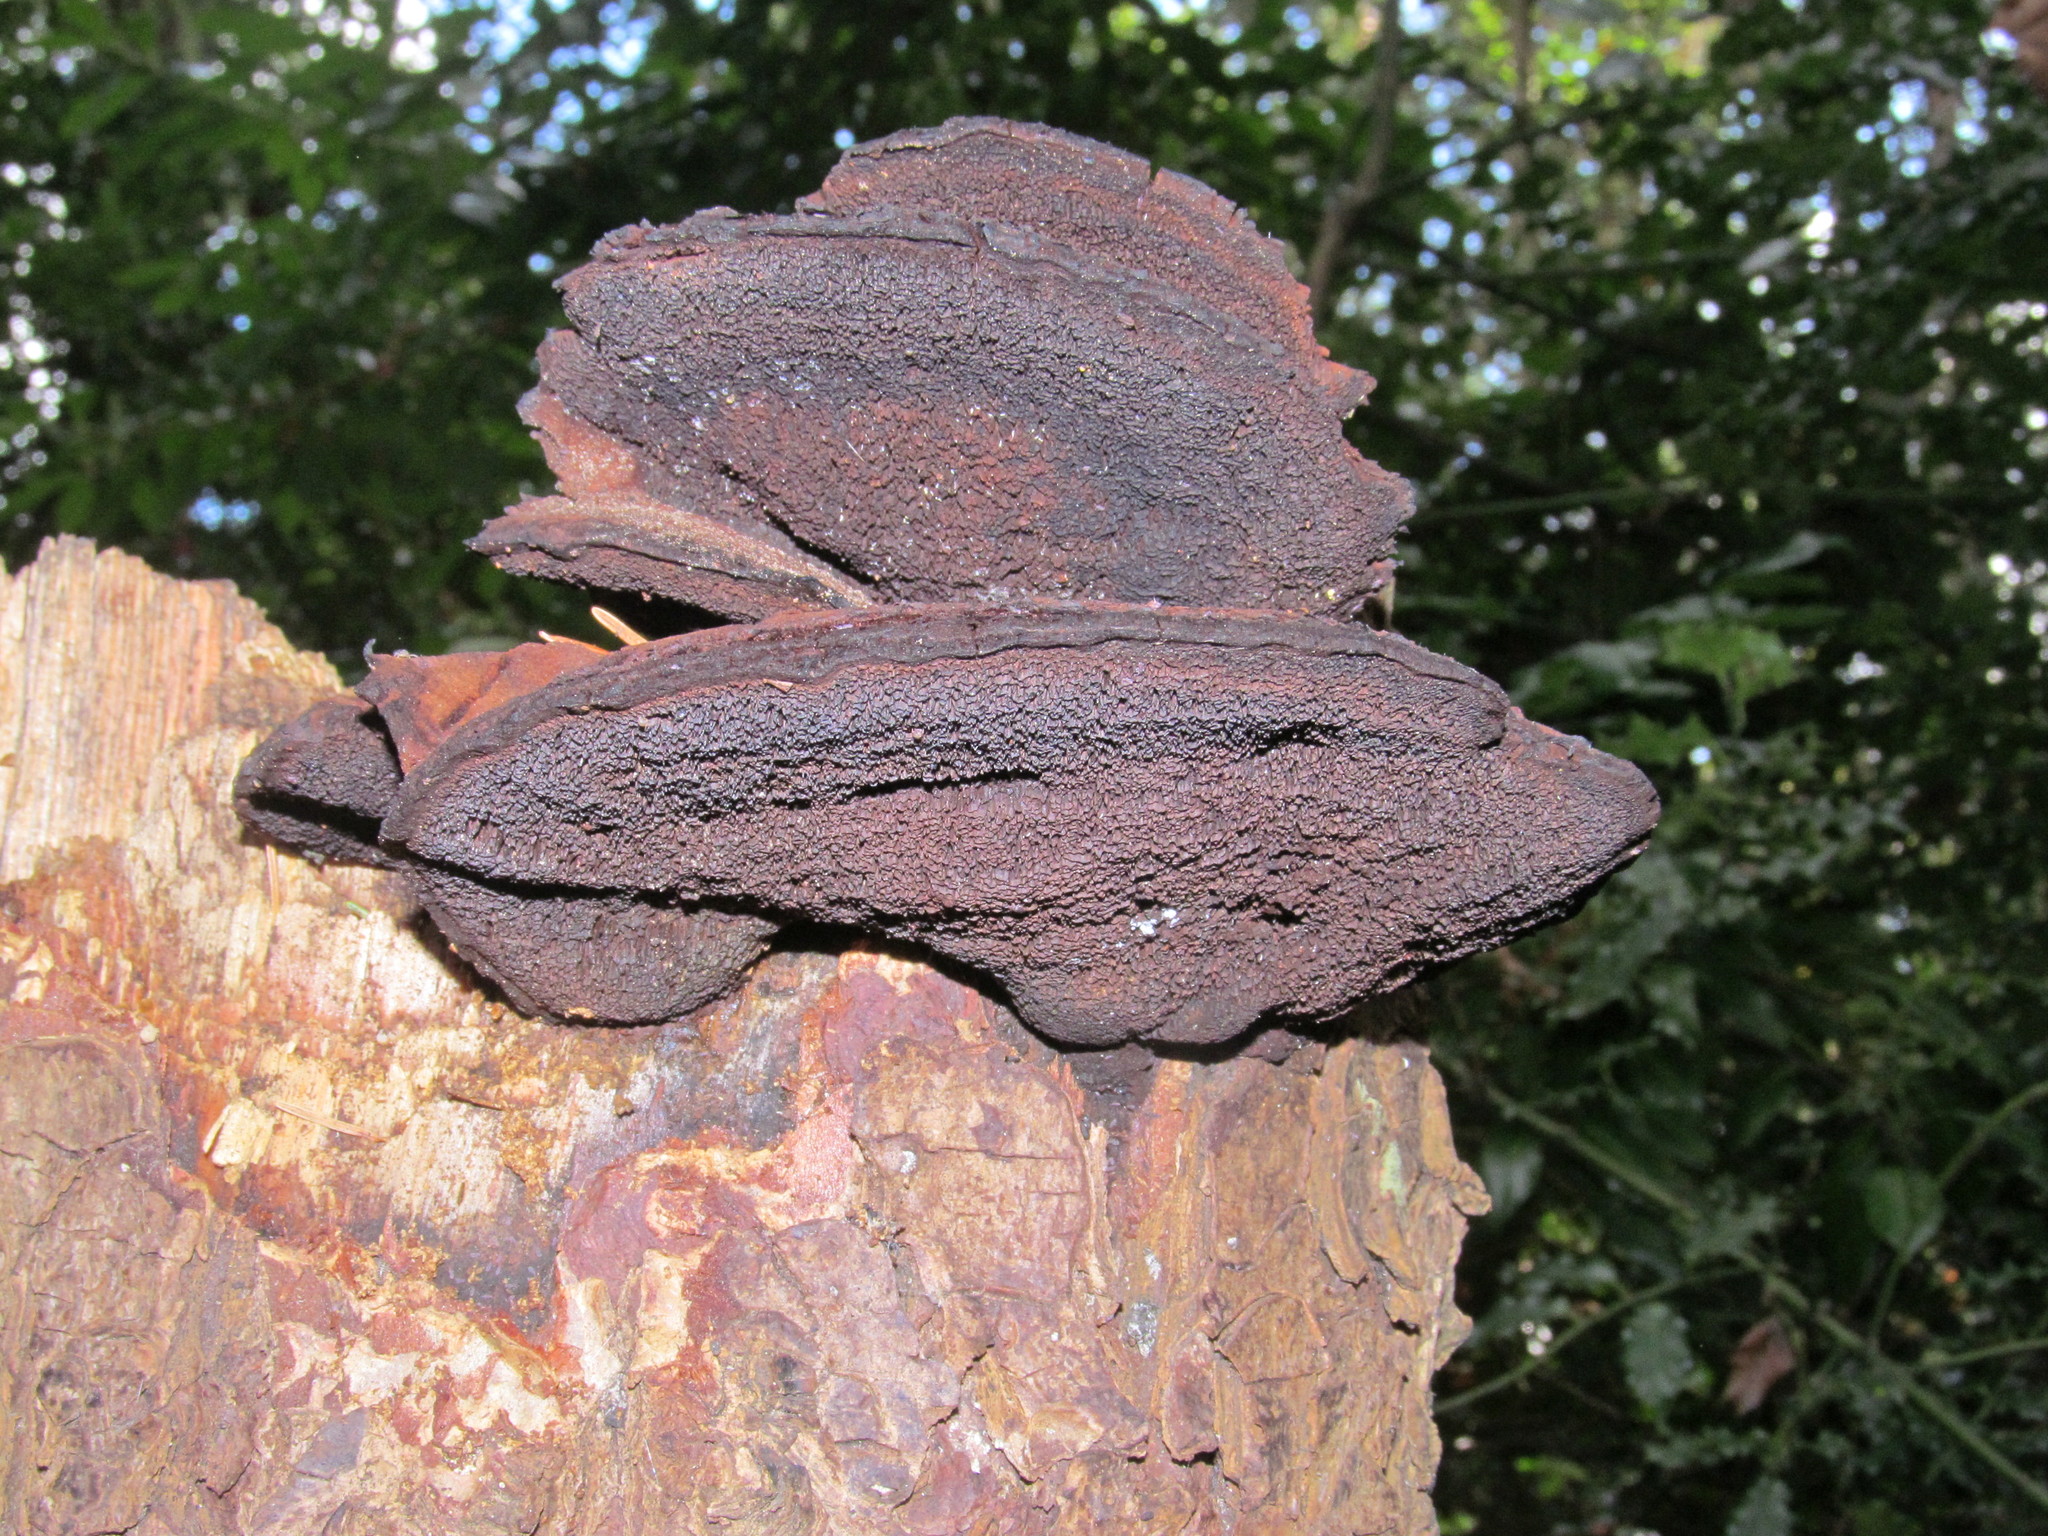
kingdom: Fungi
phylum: Basidiomycota
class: Agaricomycetes
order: Polyporales
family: Laetiporaceae
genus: Phaeolus
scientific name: Phaeolus schweinitzii
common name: Dyer's mazegill
